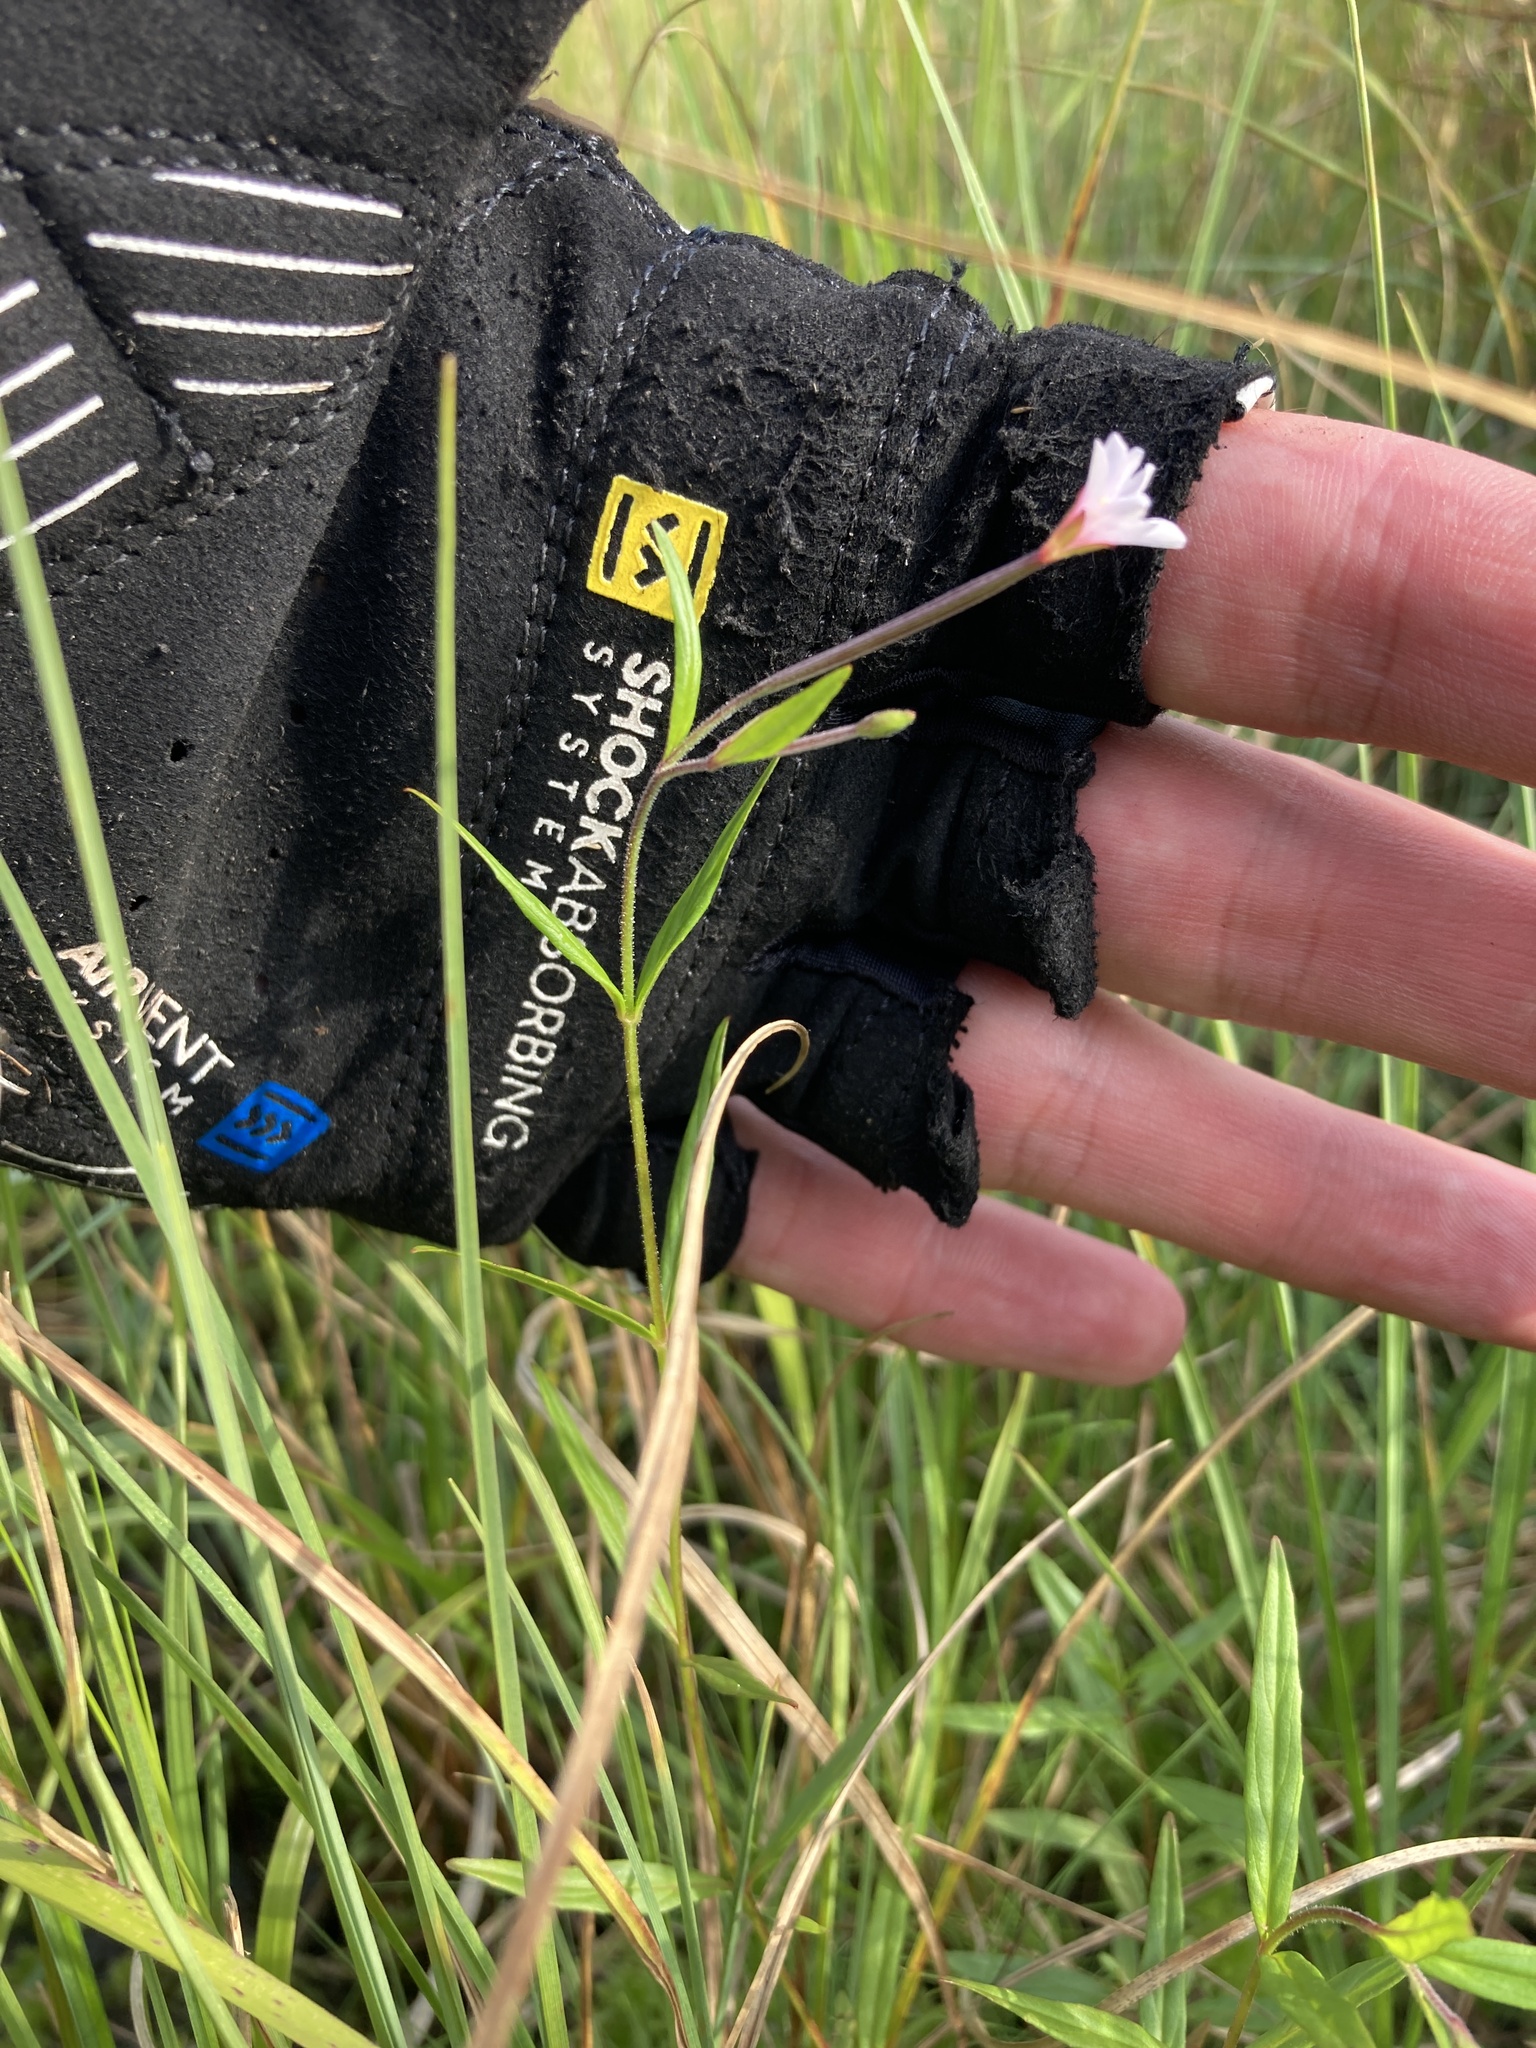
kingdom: Plantae
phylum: Tracheophyta
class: Magnoliopsida
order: Myrtales
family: Onagraceae
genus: Epilobium
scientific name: Epilobium palustre
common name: Marsh willowherb
